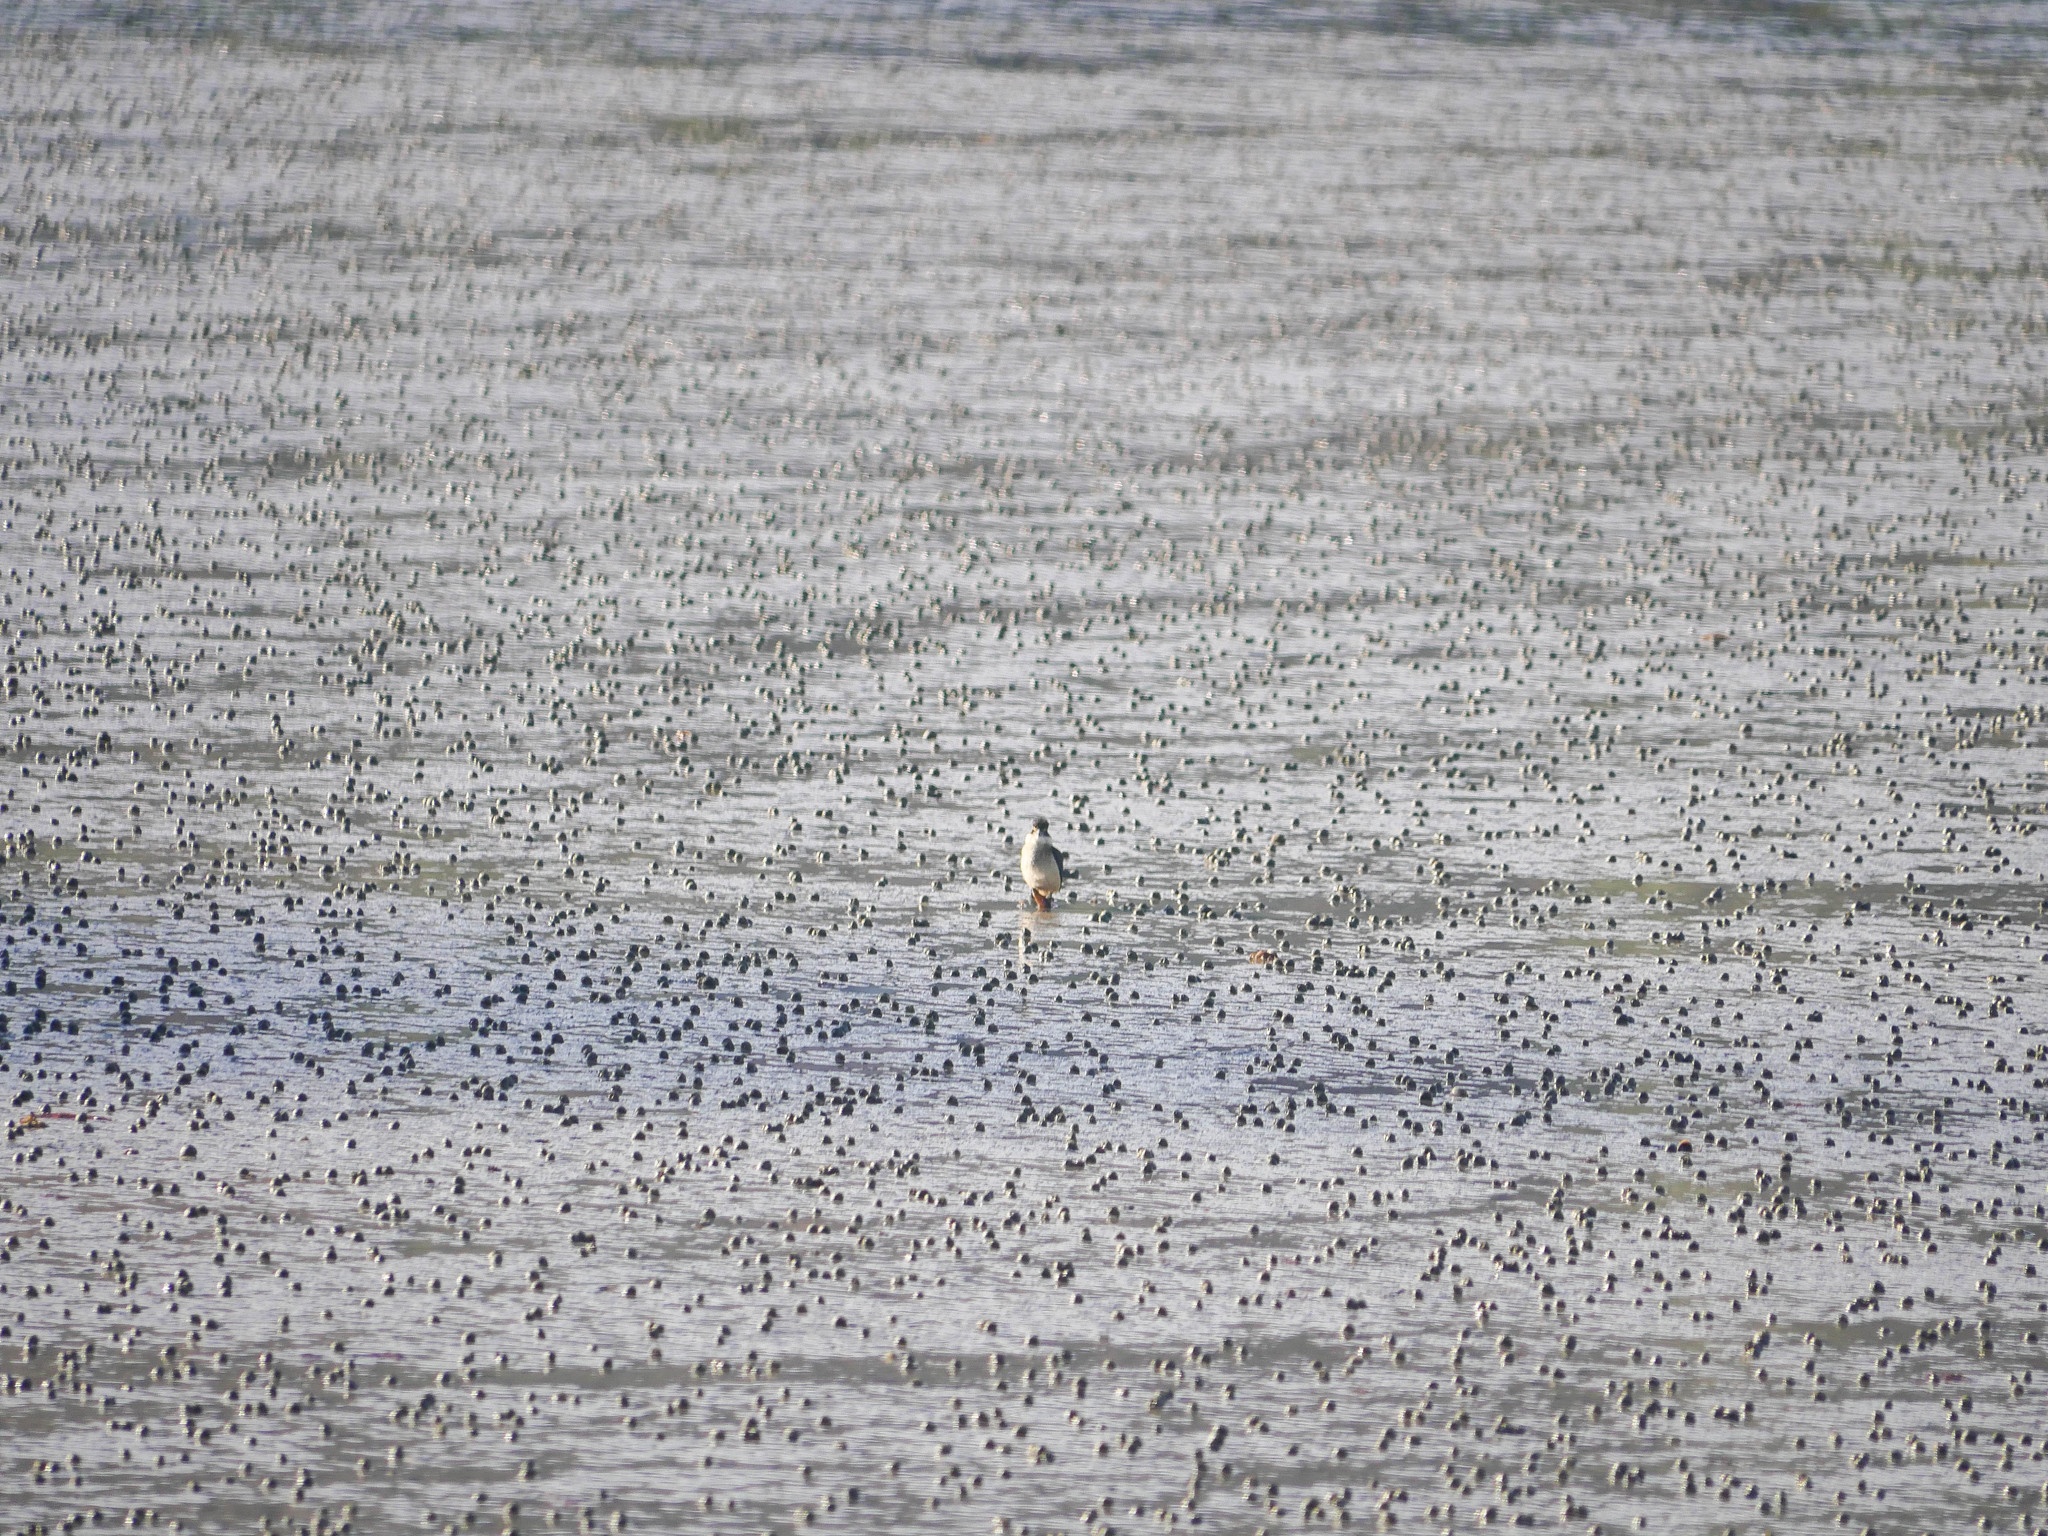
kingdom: Animalia
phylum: Chordata
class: Aves
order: Coraciiformes
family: Alcedinidae
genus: Todiramphus
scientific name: Todiramphus sanctus
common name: Sacred kingfisher
